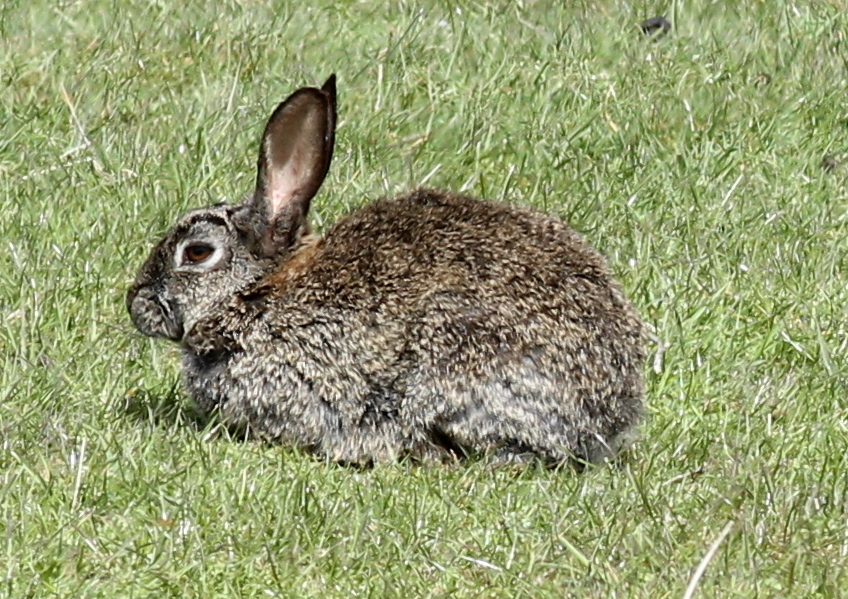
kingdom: Animalia
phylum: Chordata
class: Mammalia
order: Lagomorpha
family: Leporidae
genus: Oryctolagus
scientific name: Oryctolagus cuniculus
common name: European rabbit
